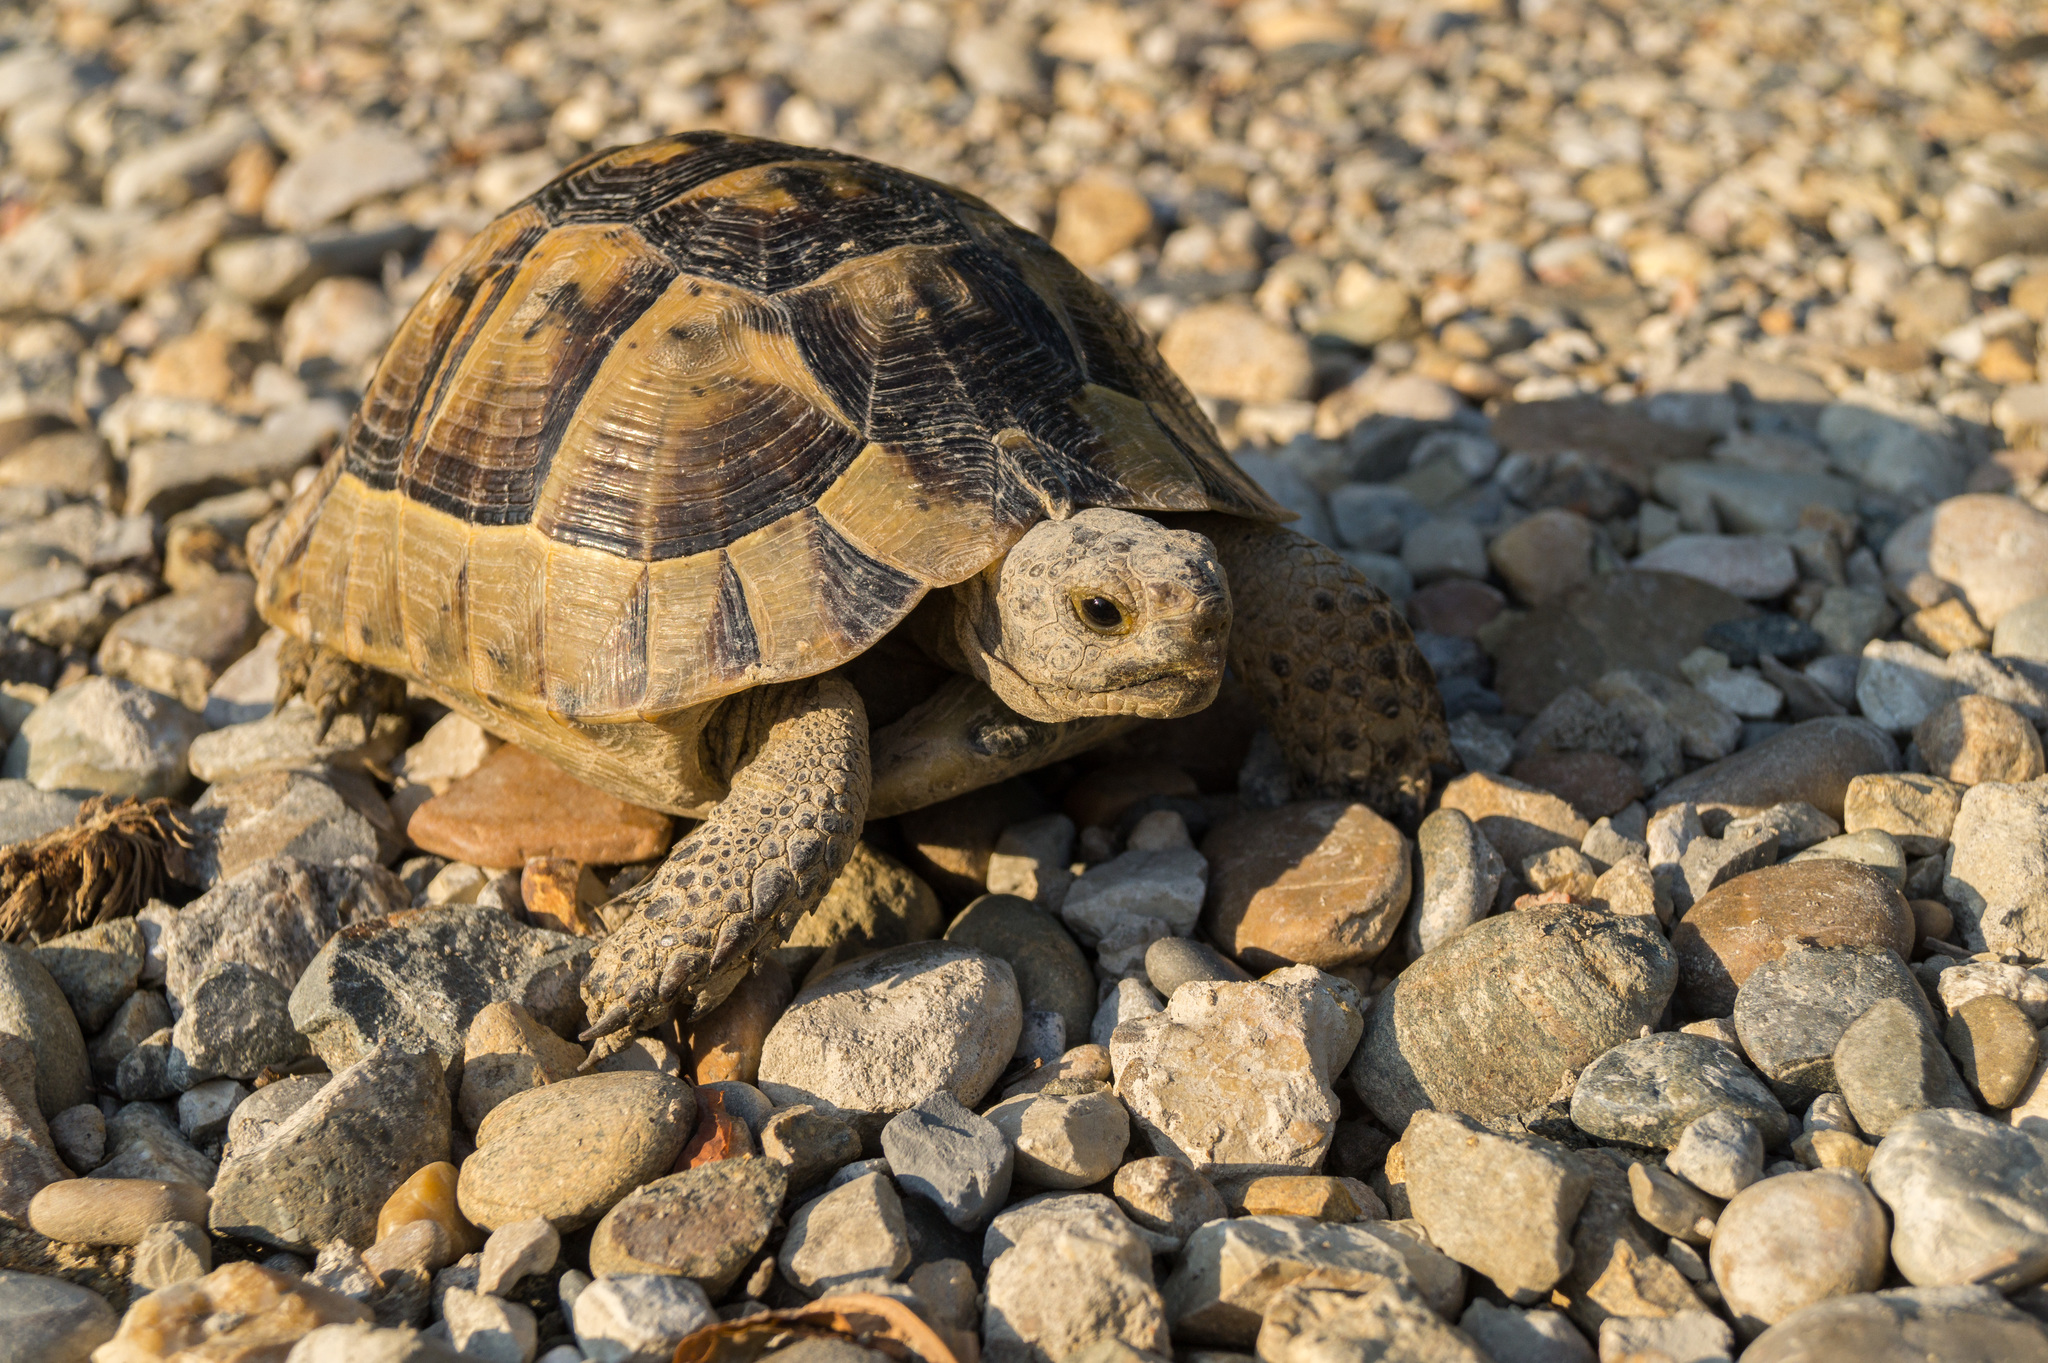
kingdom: Animalia
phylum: Chordata
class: Testudines
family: Testudinidae
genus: Testudo
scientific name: Testudo graeca
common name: Common tortoise
